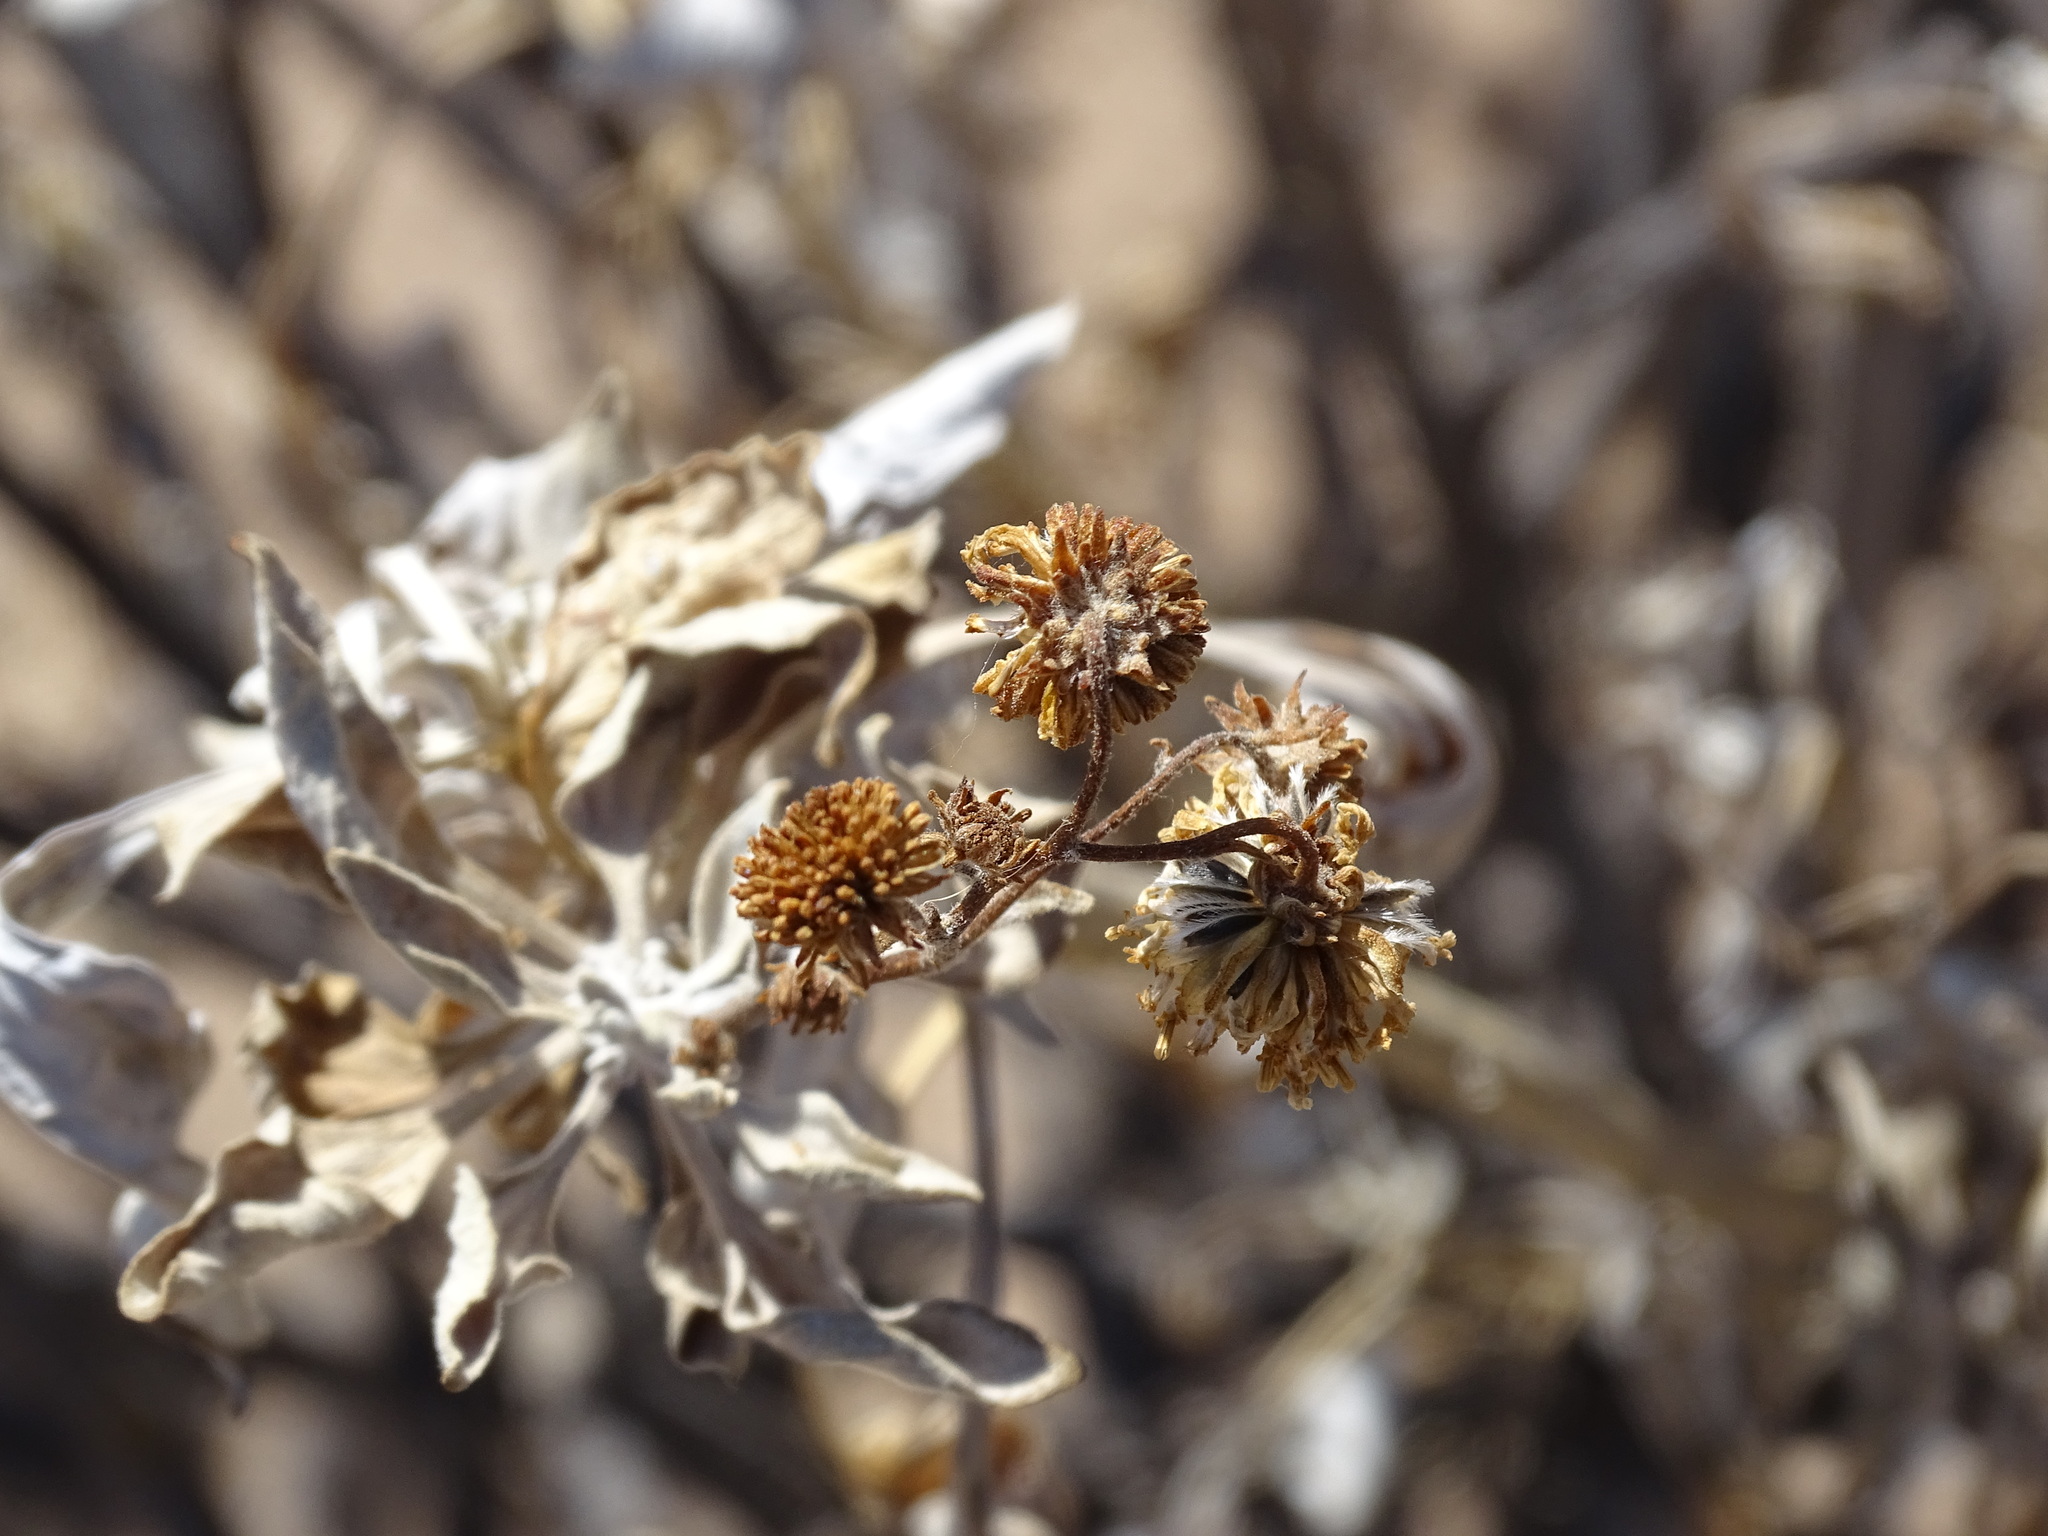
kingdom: Plantae
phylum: Tracheophyta
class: Magnoliopsida
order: Asterales
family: Asteraceae
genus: Encelia
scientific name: Encelia farinosa
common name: Brittlebush
